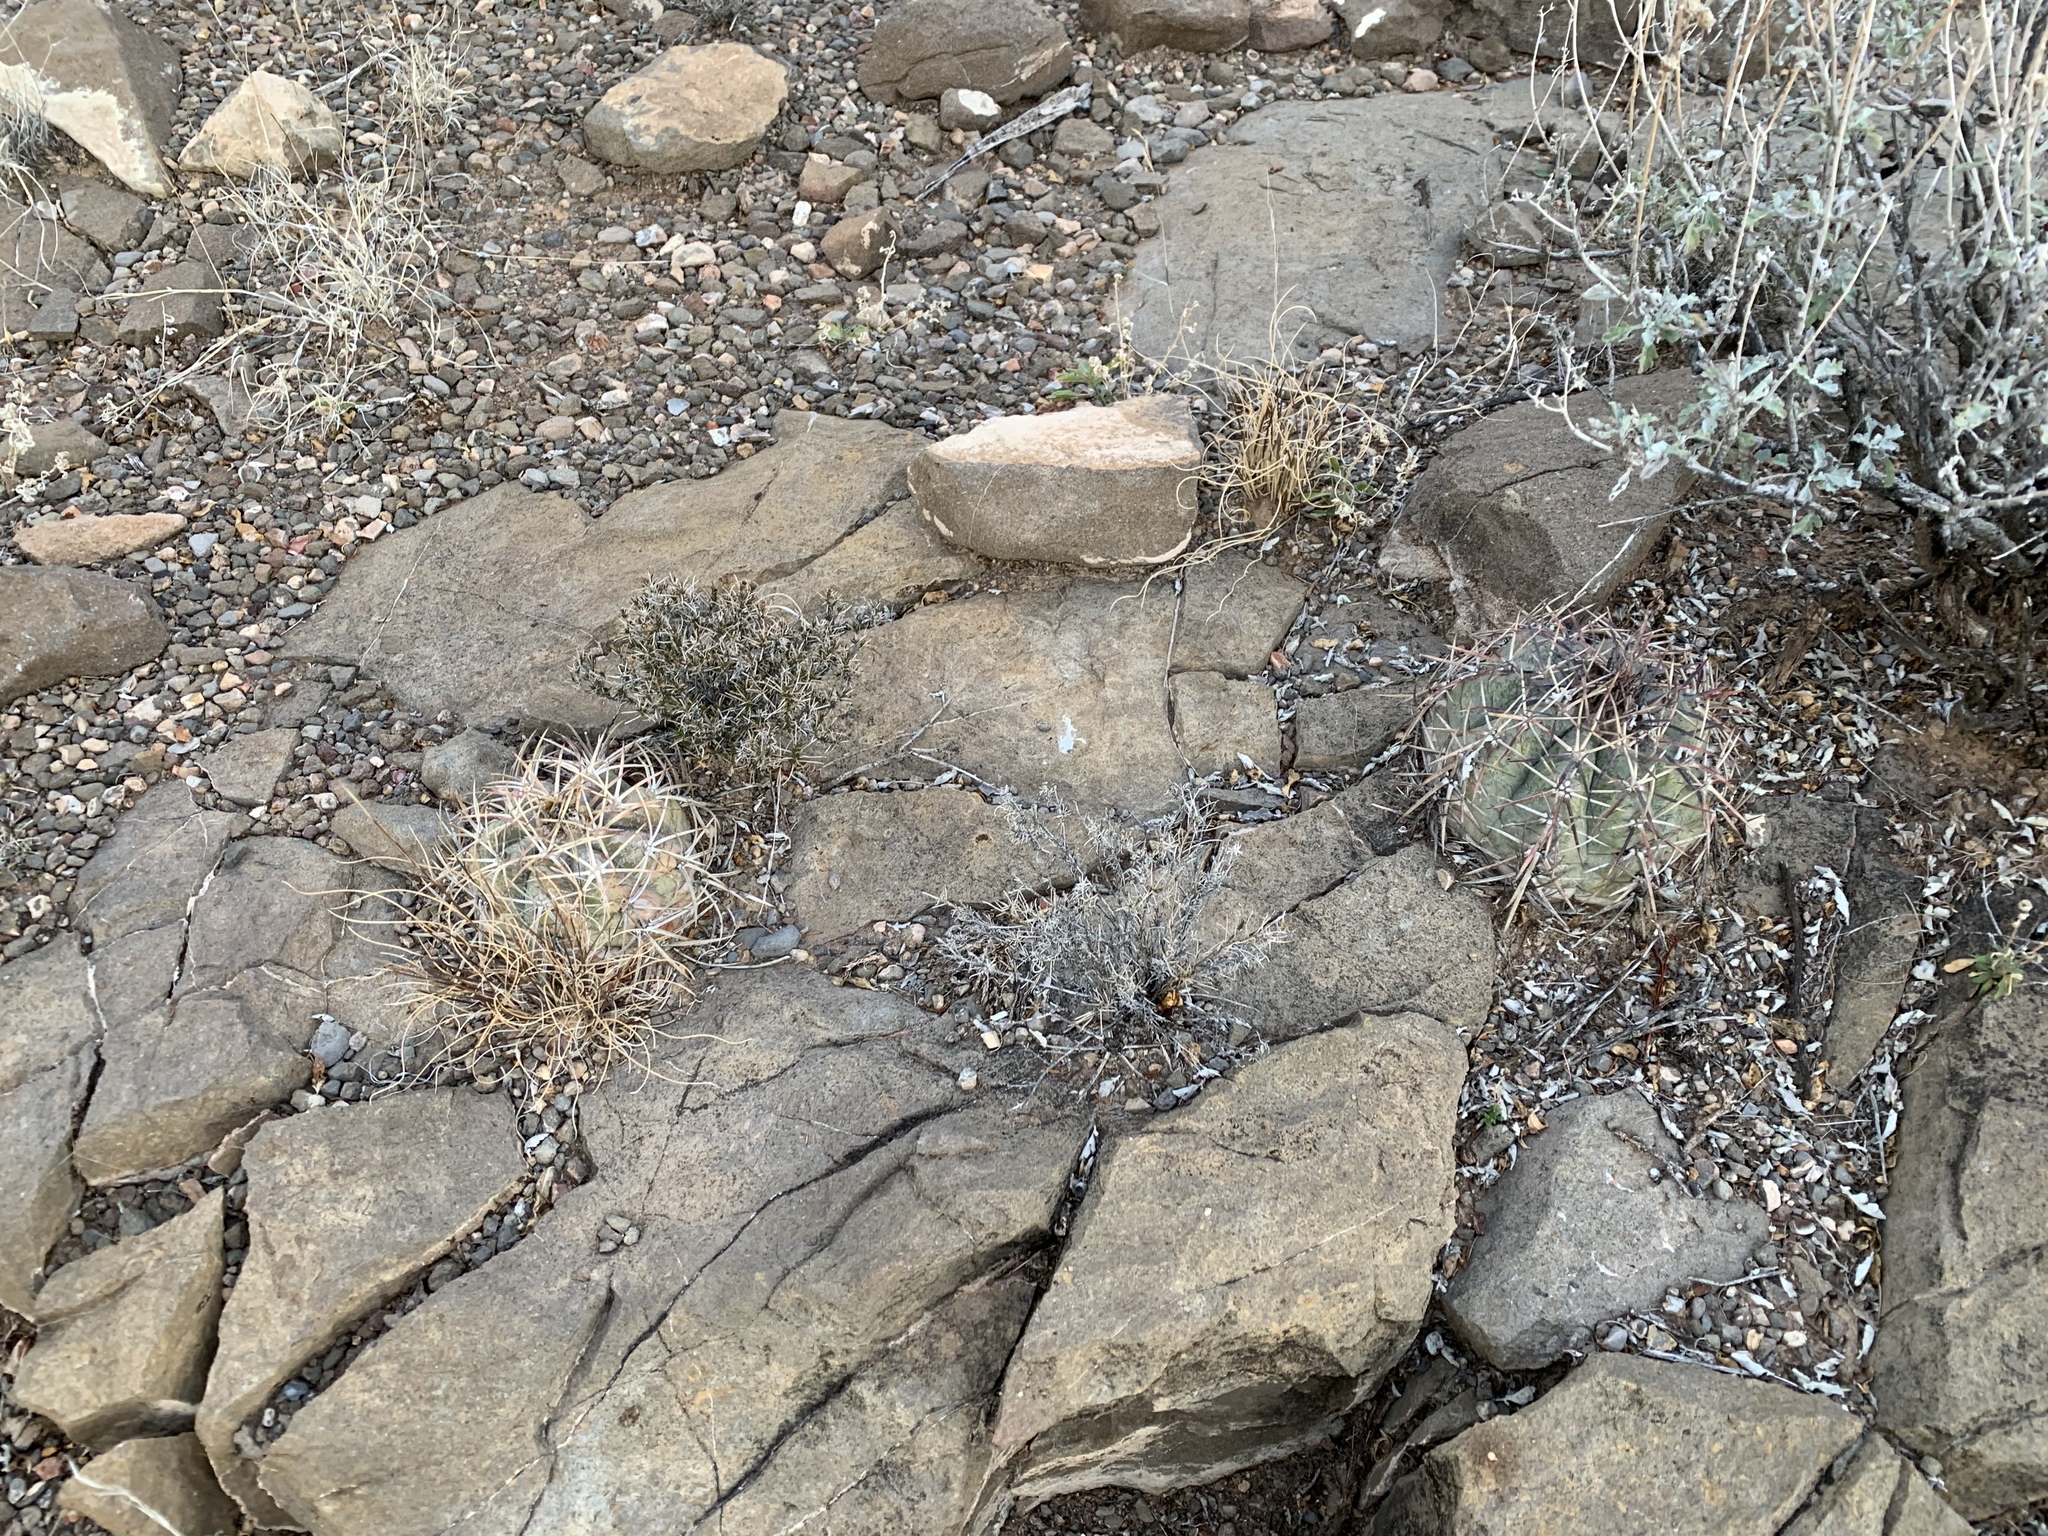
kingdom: Plantae
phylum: Tracheophyta
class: Magnoliopsida
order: Caryophyllales
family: Cactaceae
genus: Echinocactus
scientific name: Echinocactus horizonthalonius
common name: Devilshead
